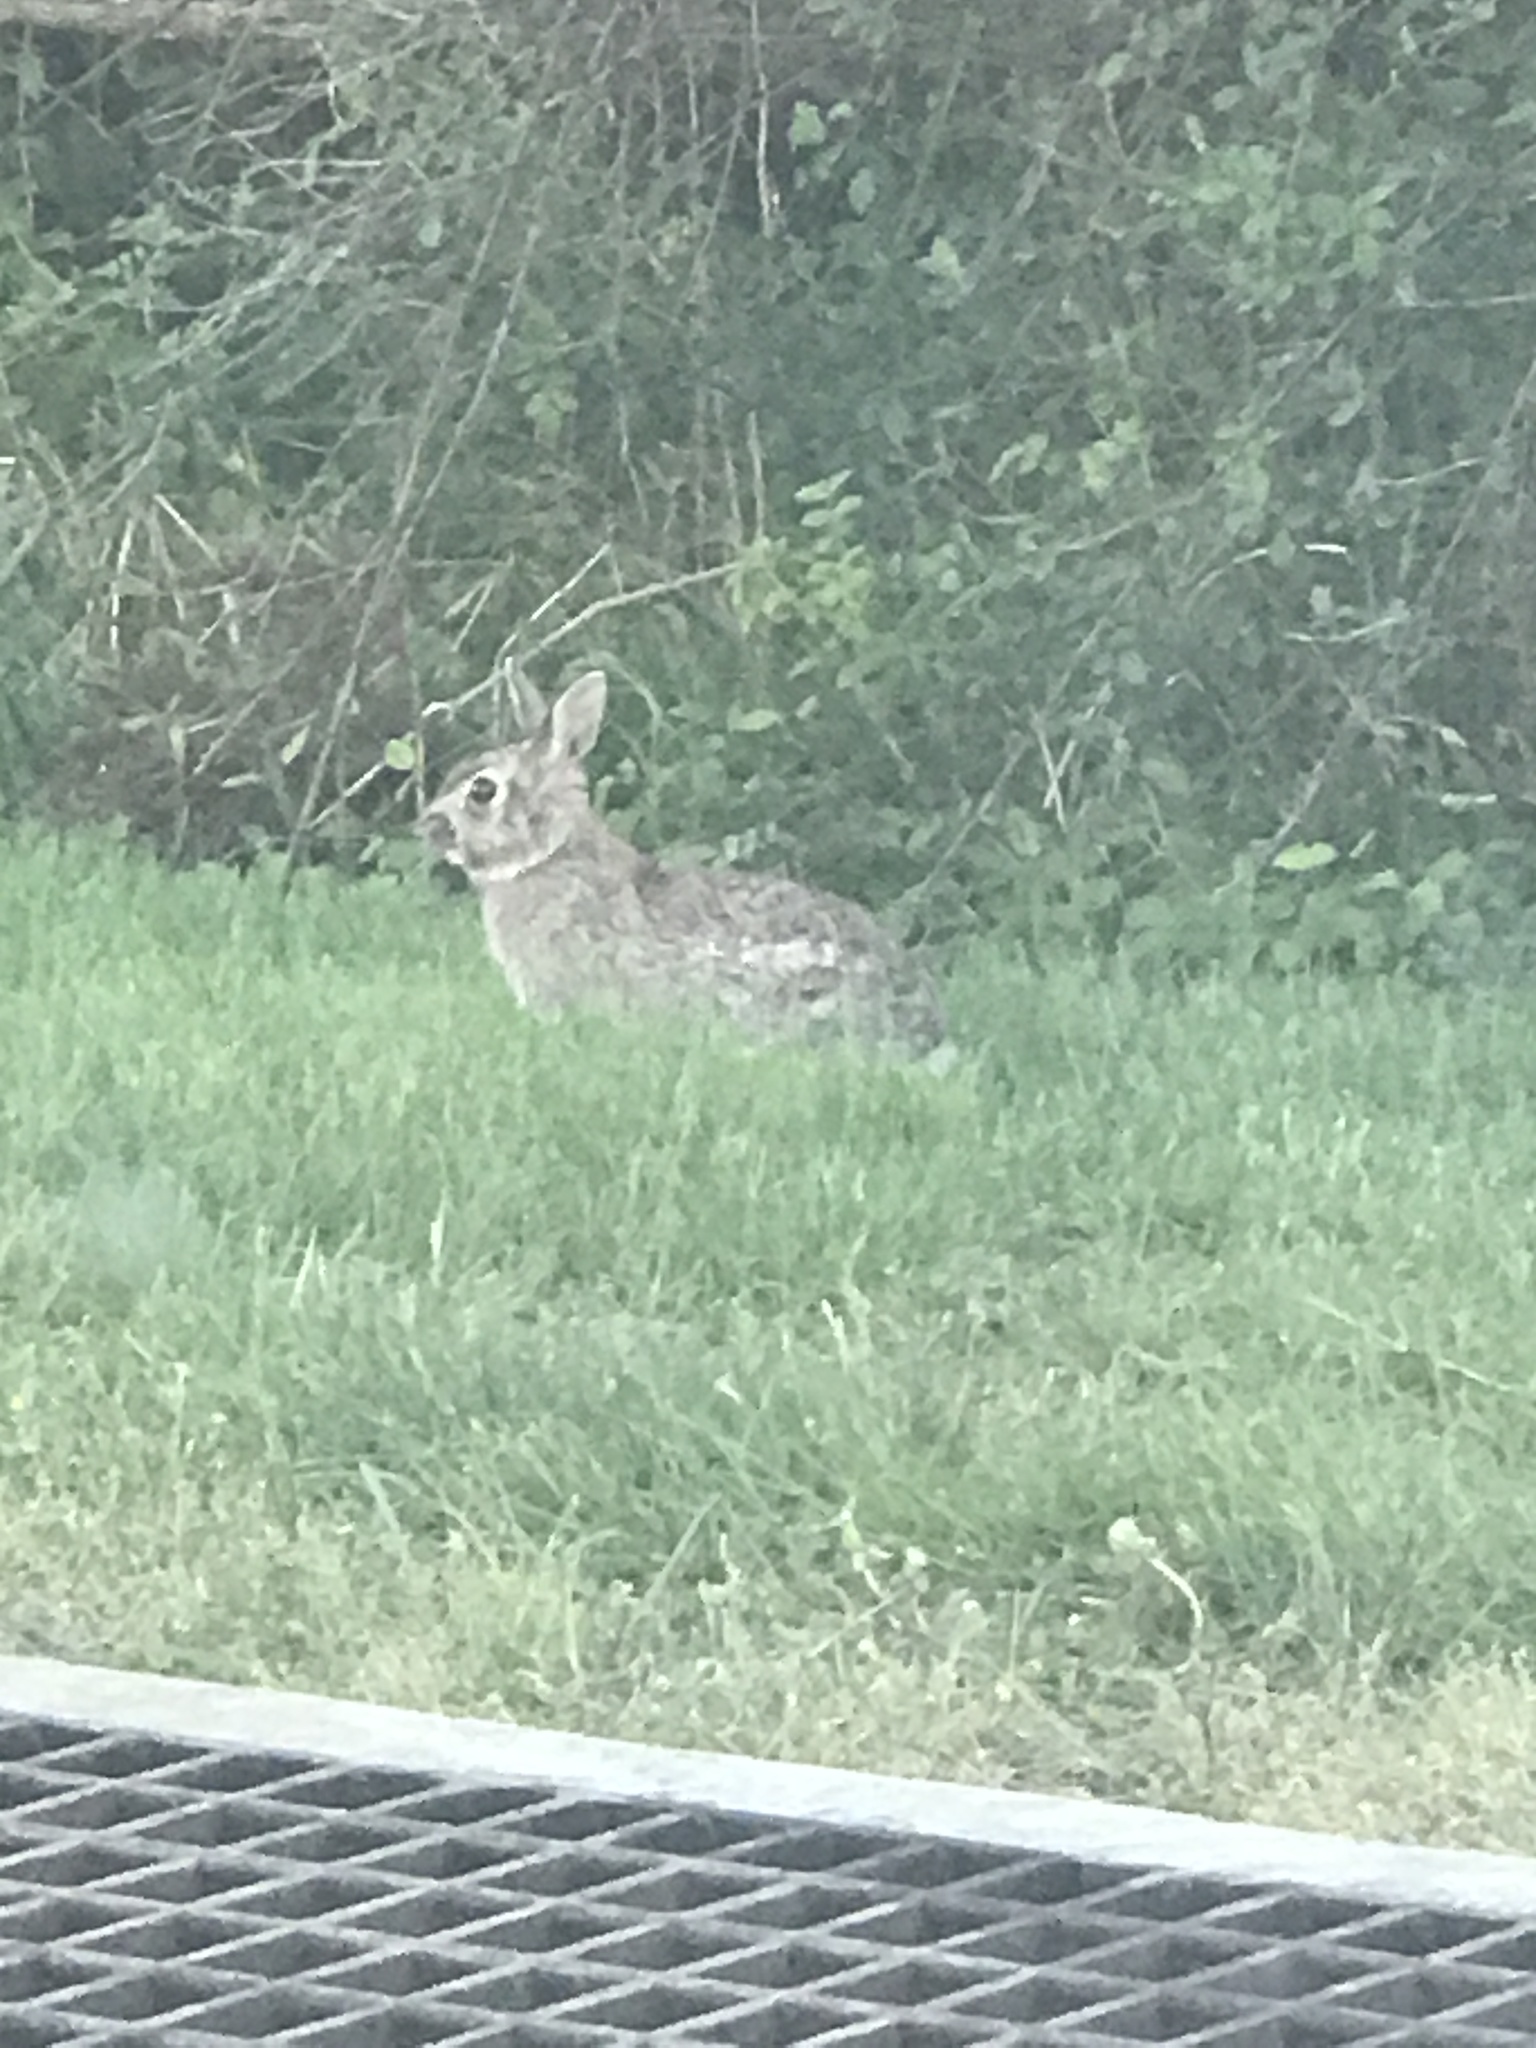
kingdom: Animalia
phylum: Chordata
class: Mammalia
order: Lagomorpha
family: Leporidae
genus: Sylvilagus
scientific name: Sylvilagus floridanus
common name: Eastern cottontail
